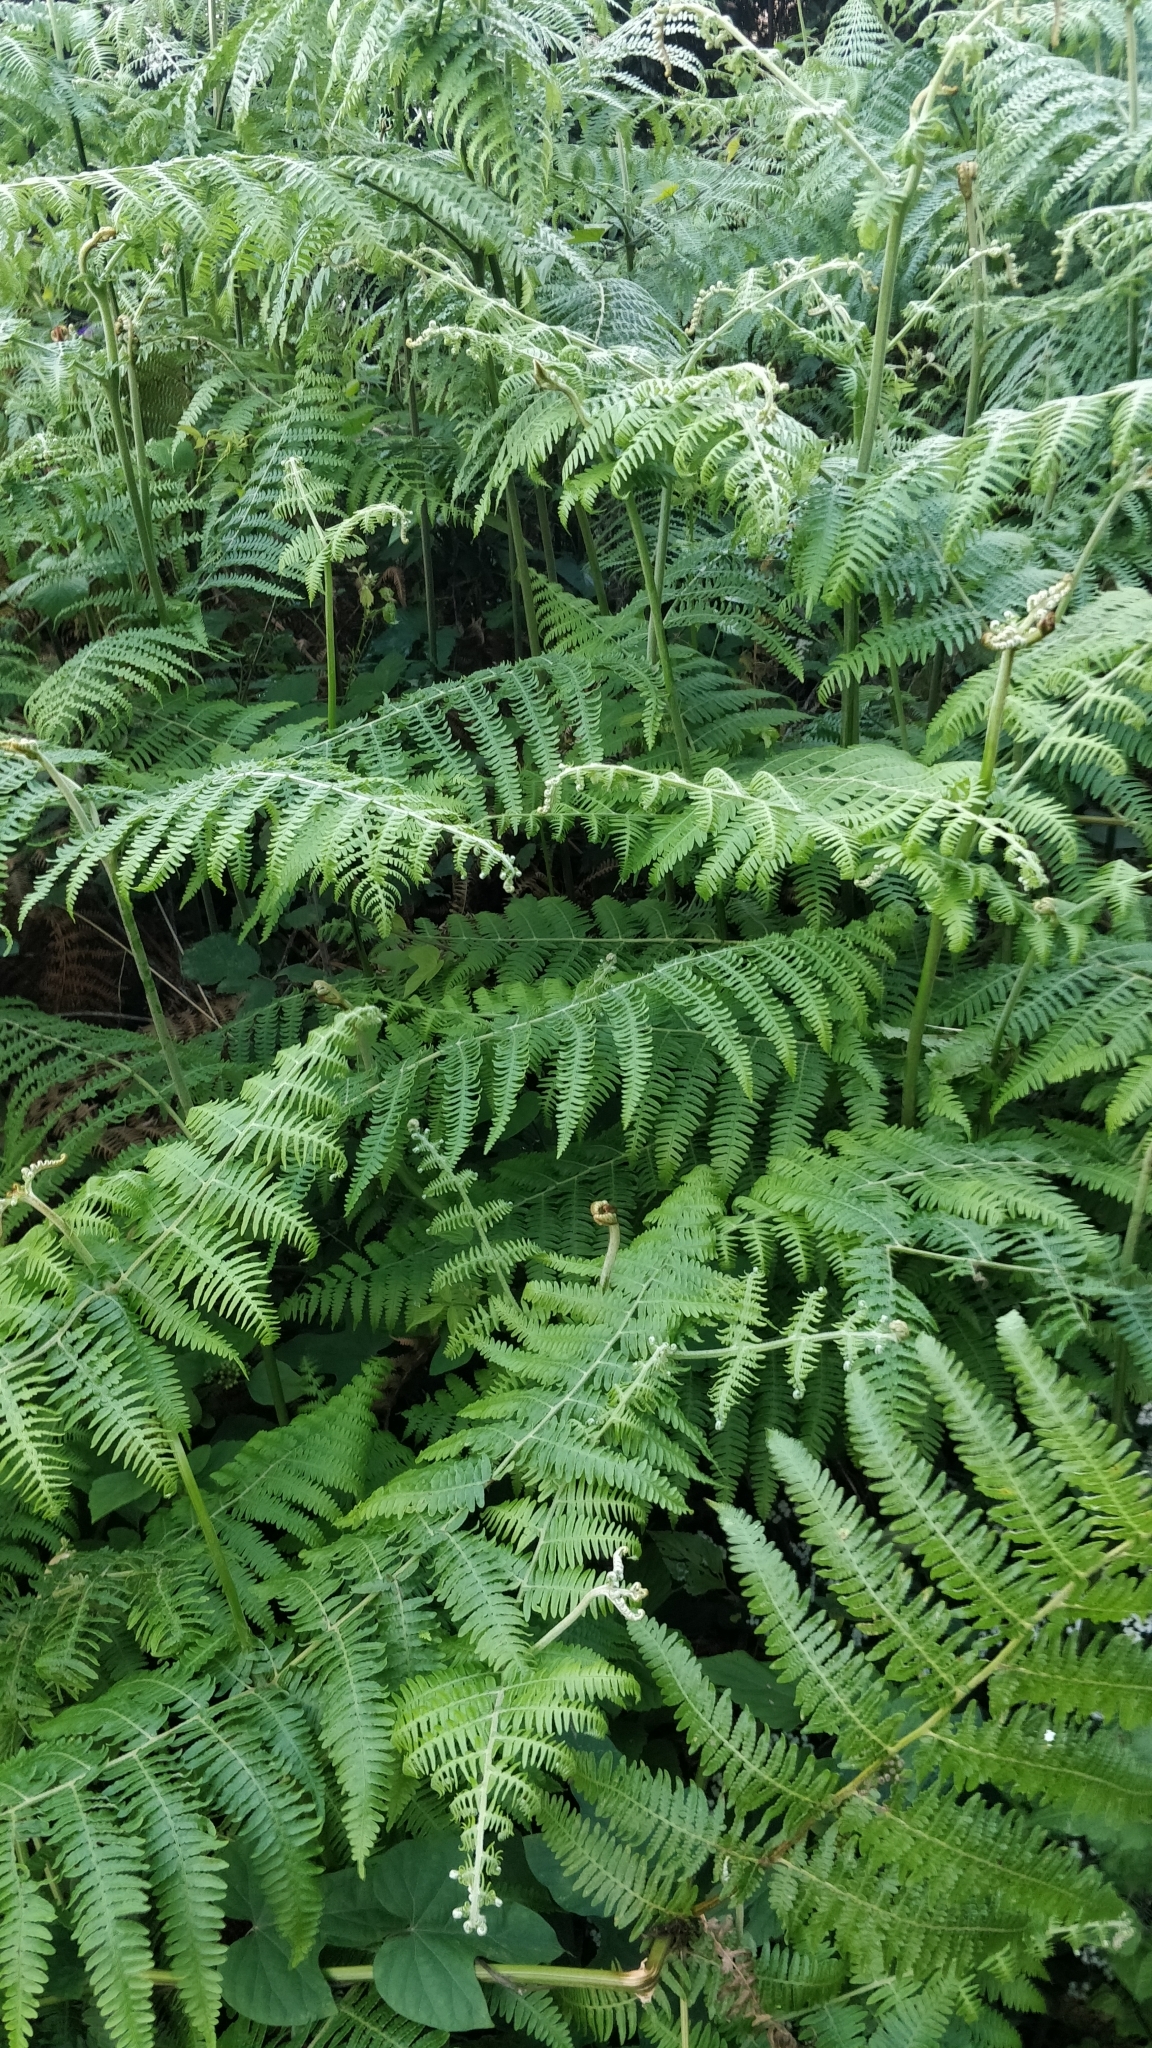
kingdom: Plantae
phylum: Tracheophyta
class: Polypodiopsida
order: Polypodiales
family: Dennstaedtiaceae
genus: Pteridium
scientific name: Pteridium aquilinum
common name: Bracken
